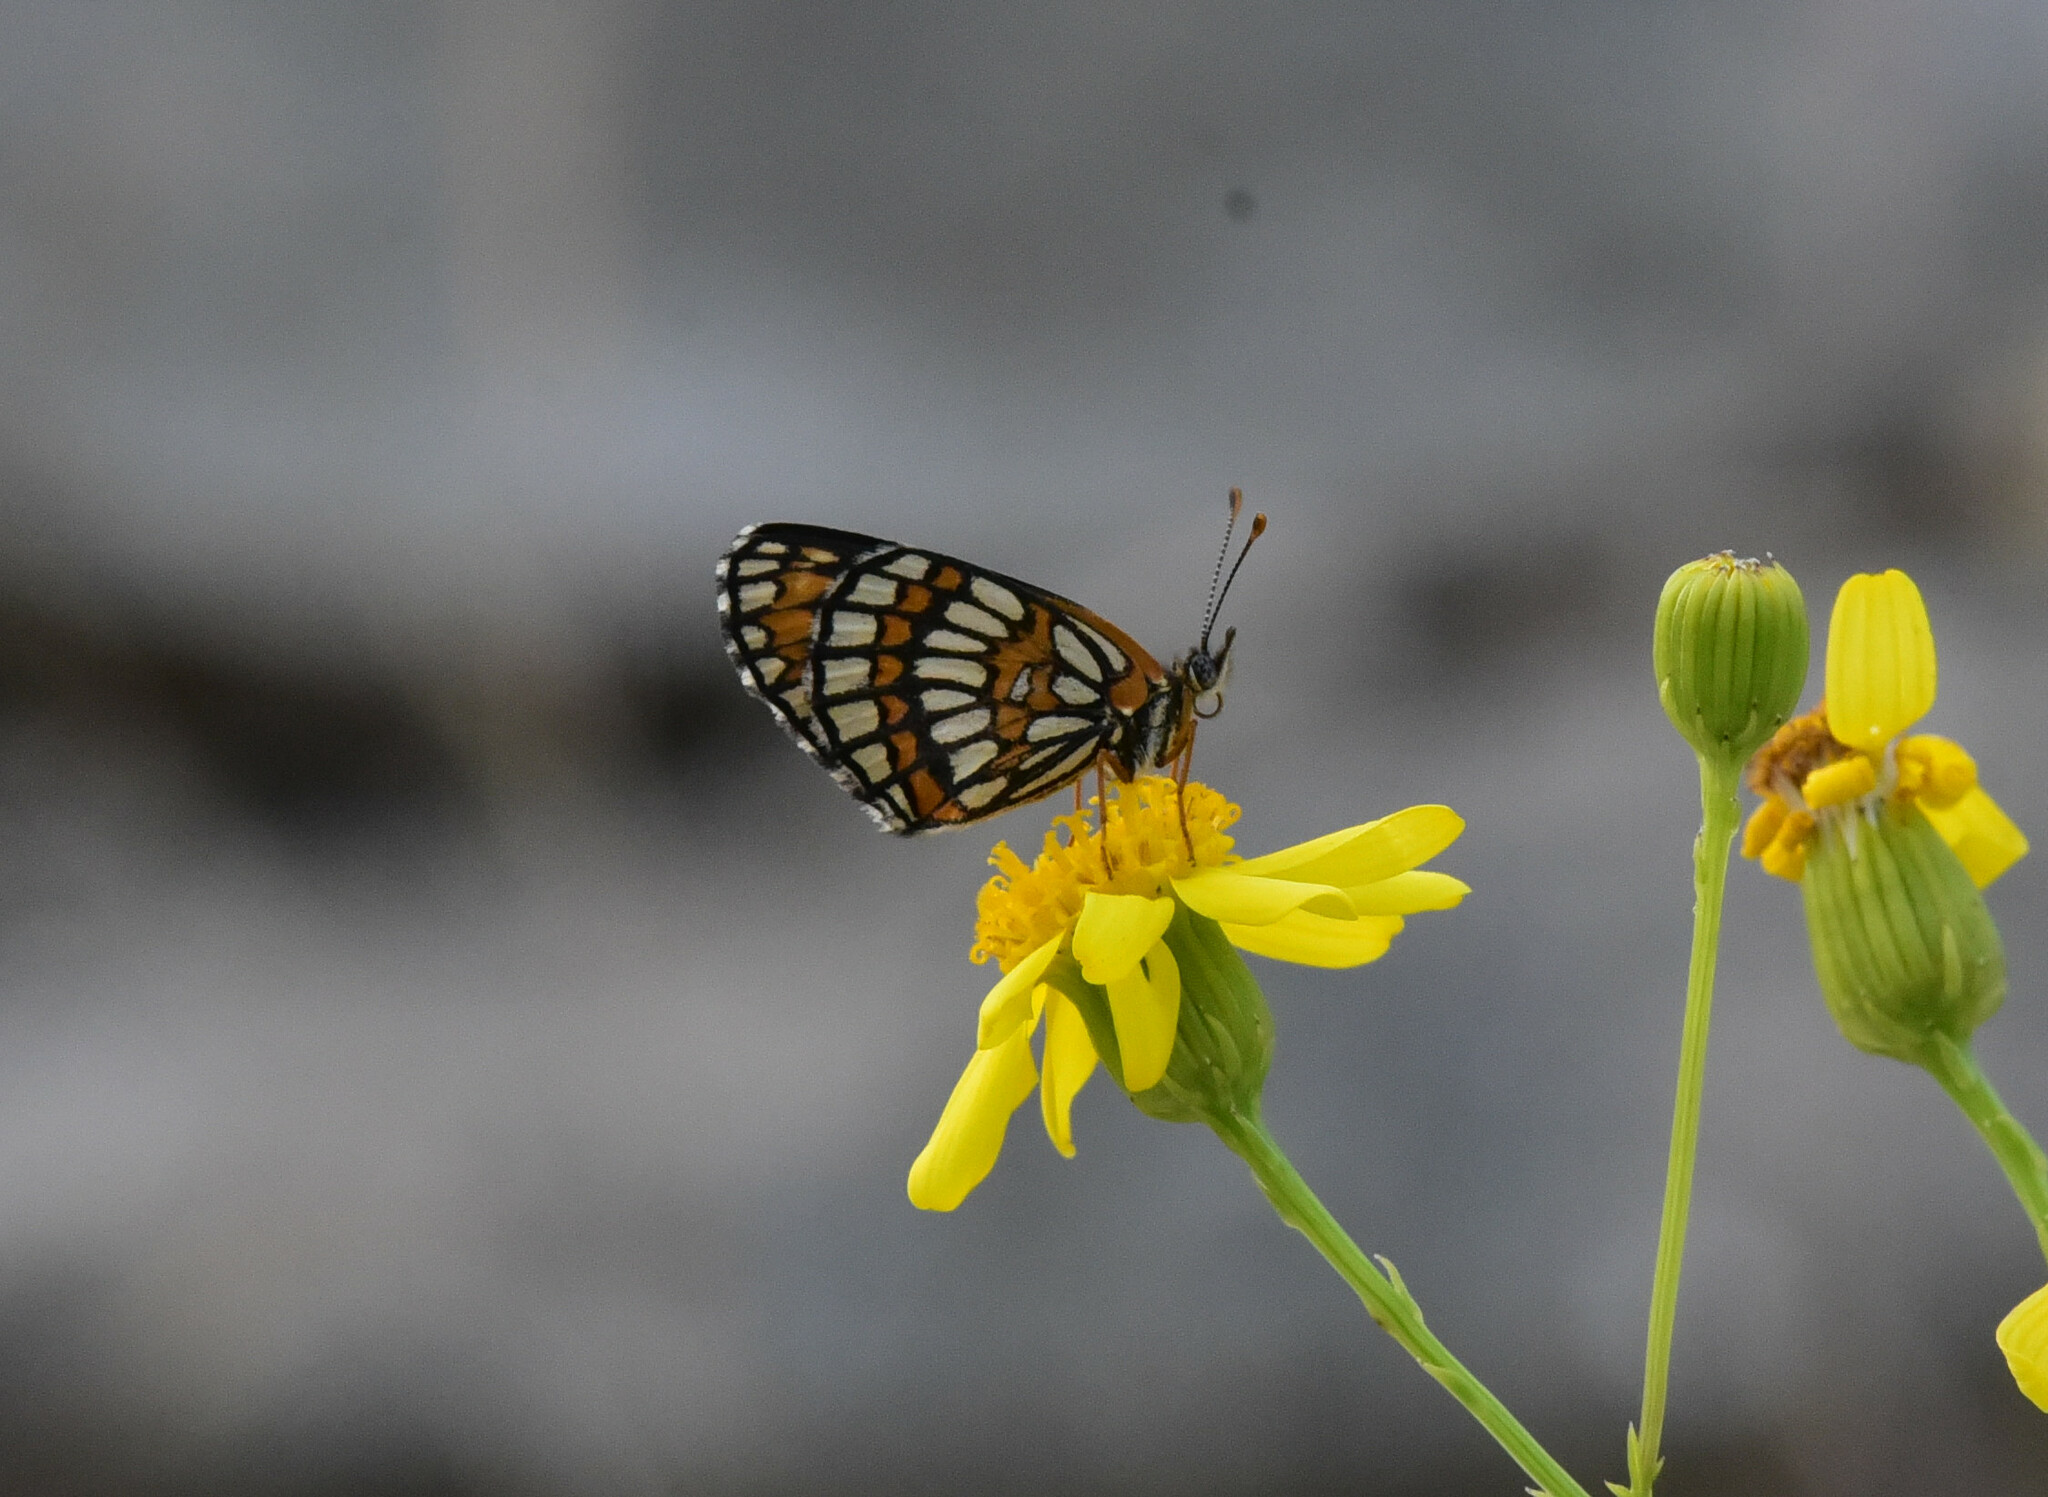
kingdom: Animalia
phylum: Arthropoda
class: Insecta
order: Lepidoptera
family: Nymphalidae
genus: Thessalia
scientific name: Thessalia theona
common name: Nymphalid moth
